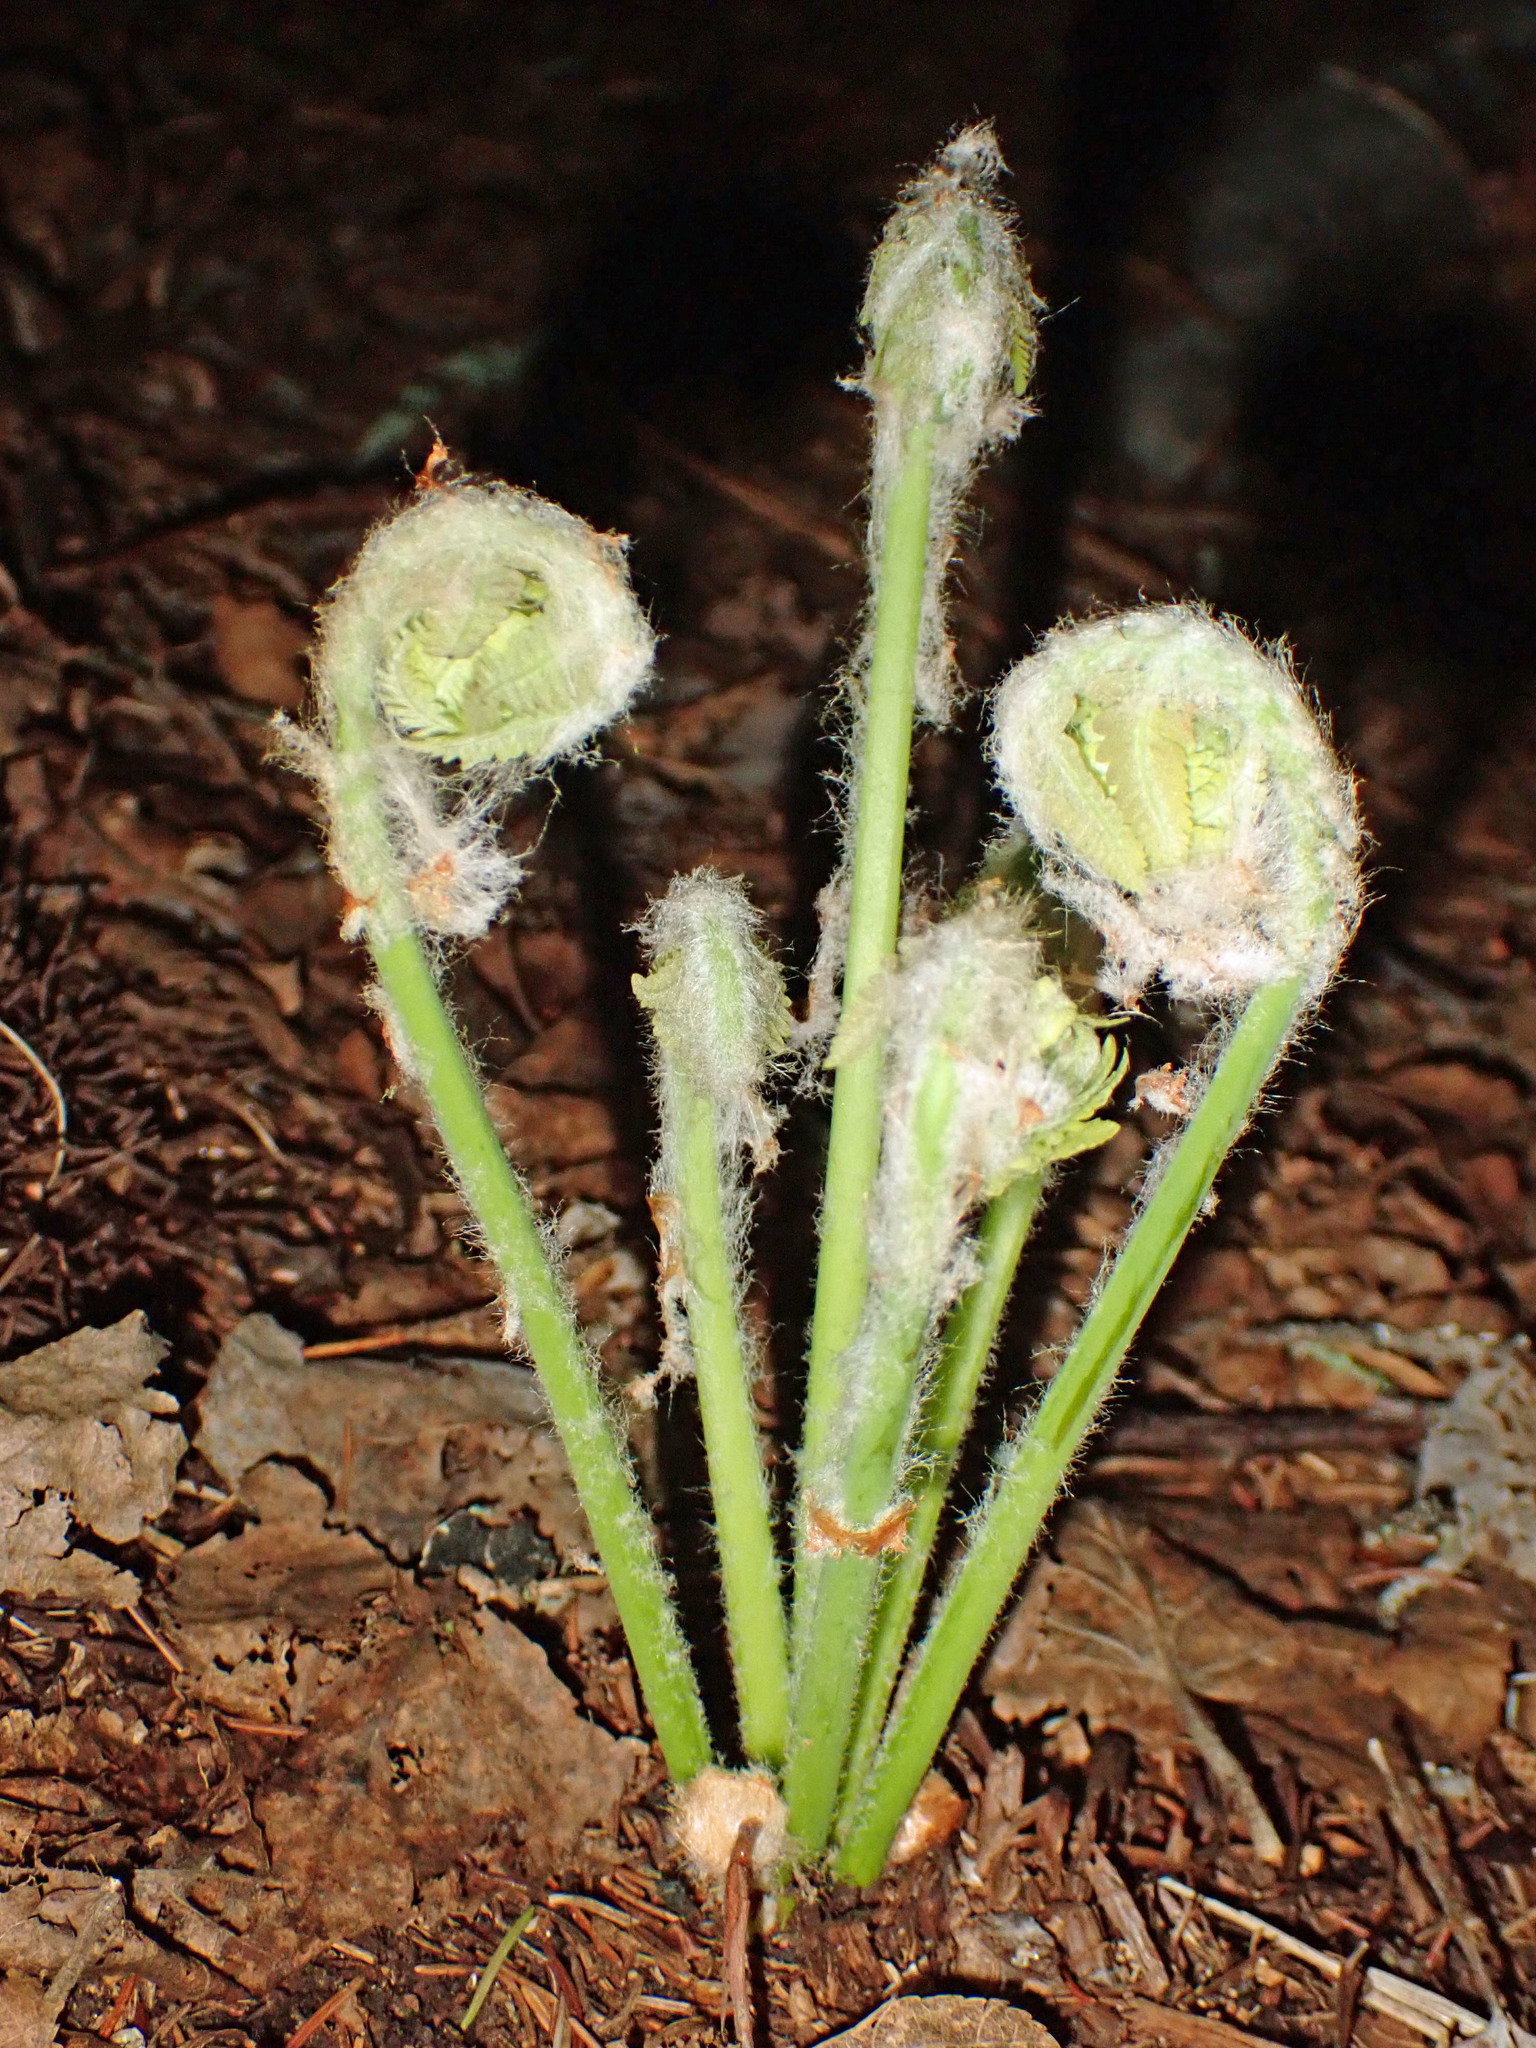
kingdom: Plantae
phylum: Tracheophyta
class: Polypodiopsida
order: Osmundales
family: Osmundaceae
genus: Claytosmunda
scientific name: Claytosmunda claytoniana
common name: Clayton's fern
